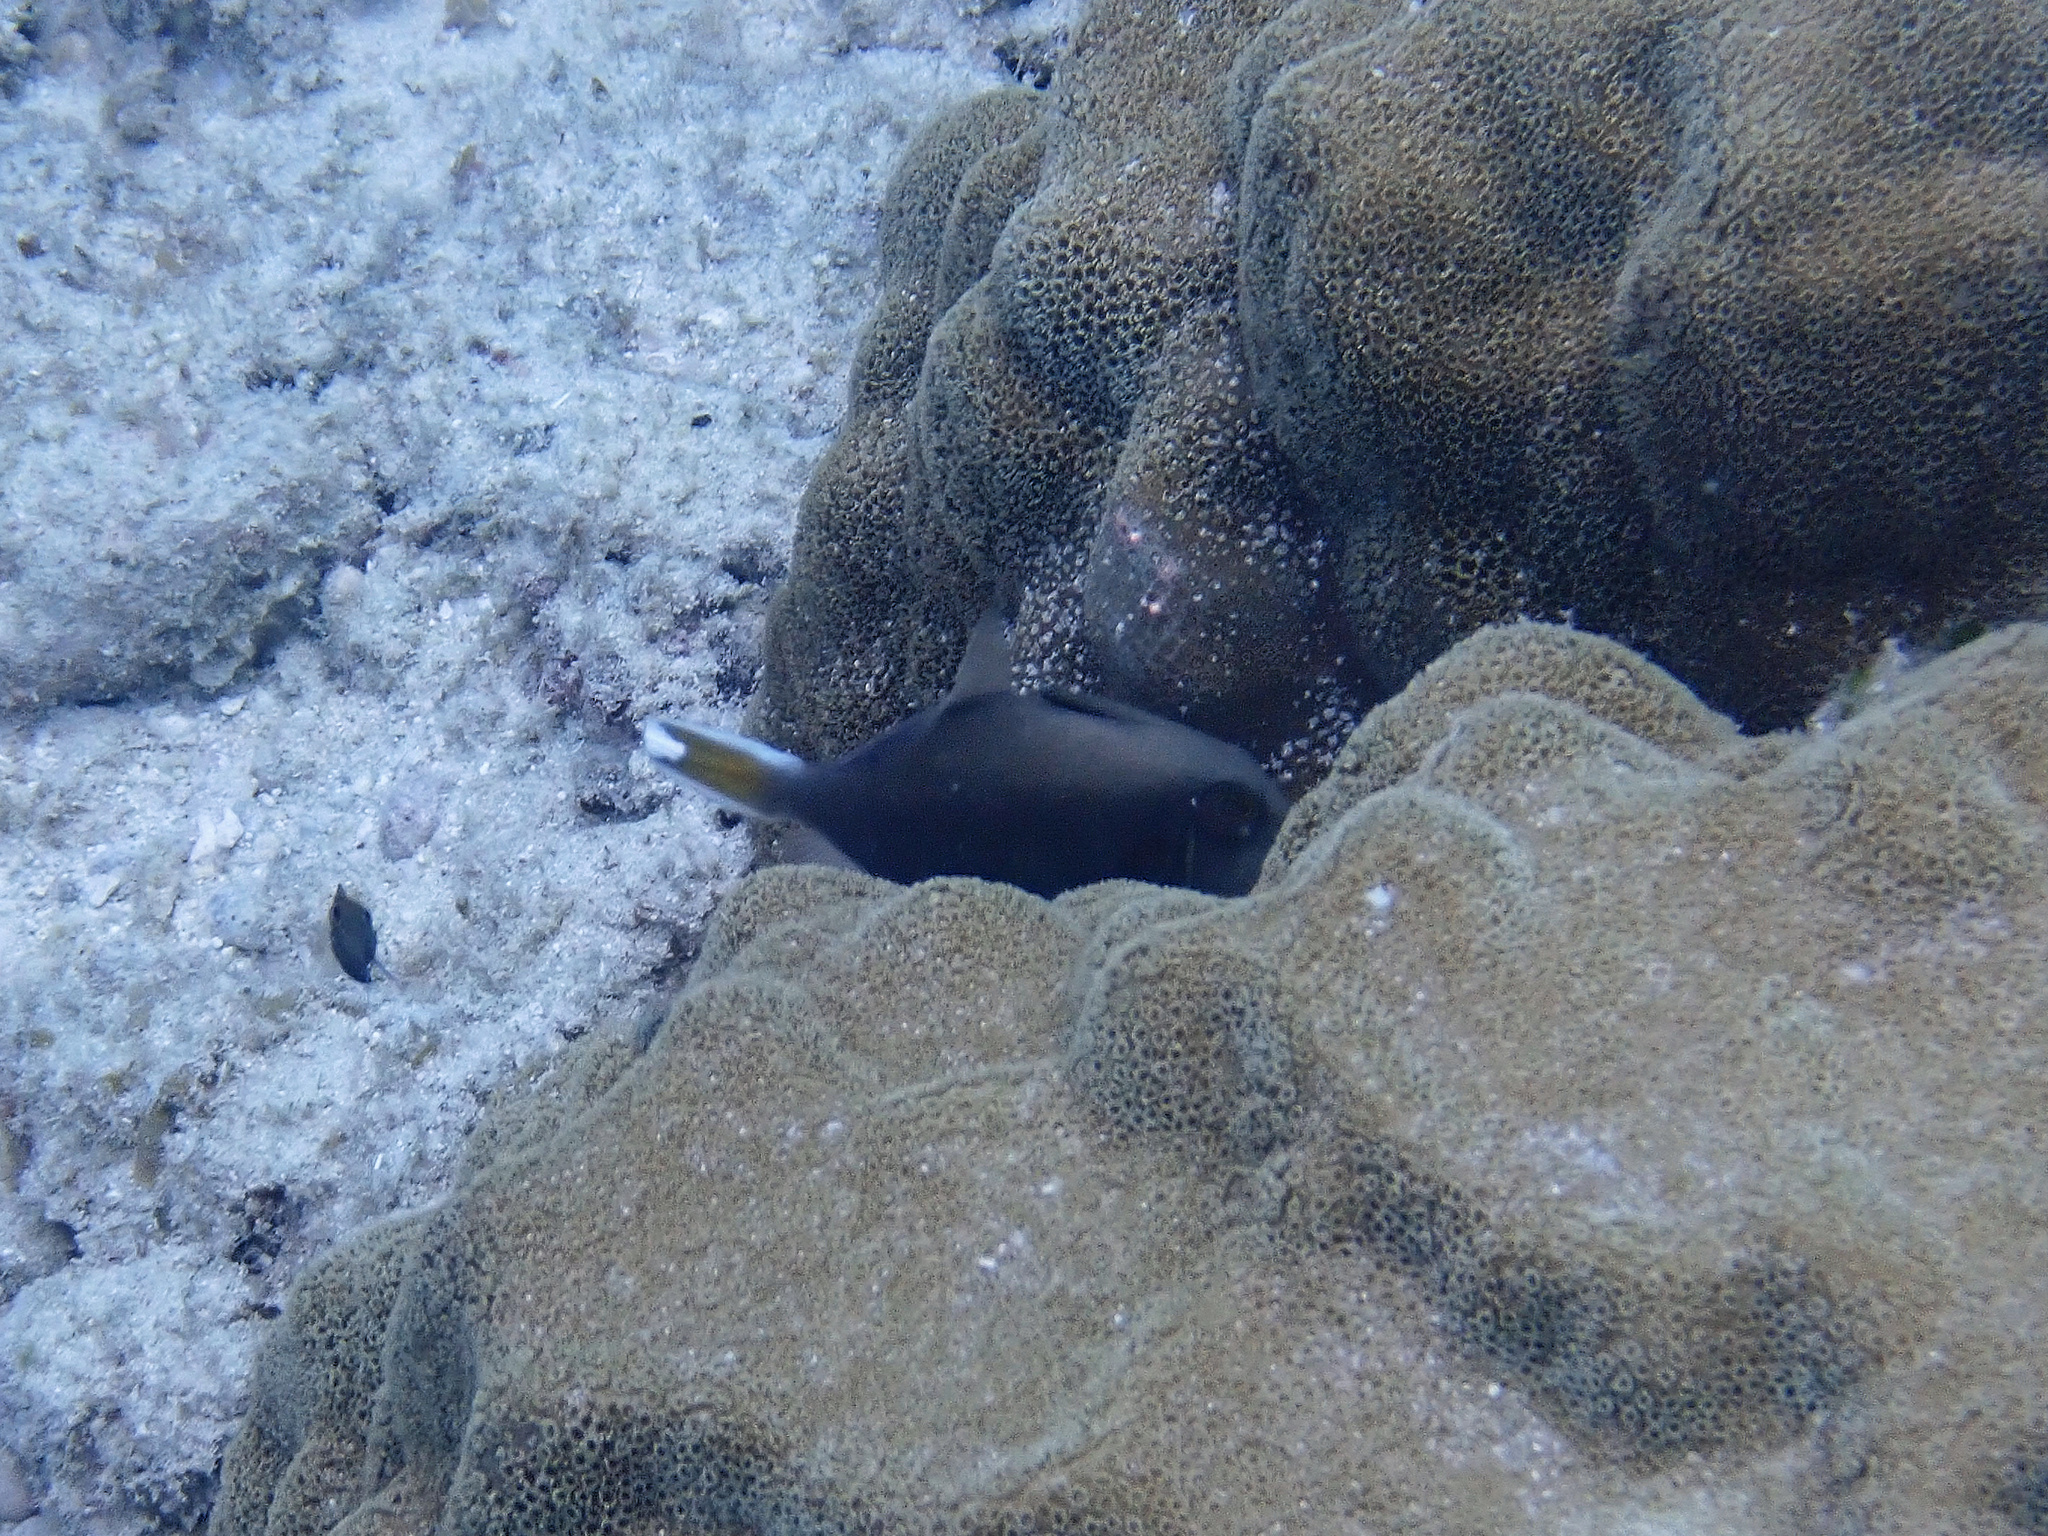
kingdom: Animalia
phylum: Chordata
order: Tetraodontiformes
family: Balistidae
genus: Sufflamen
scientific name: Sufflamen chrysopterum
